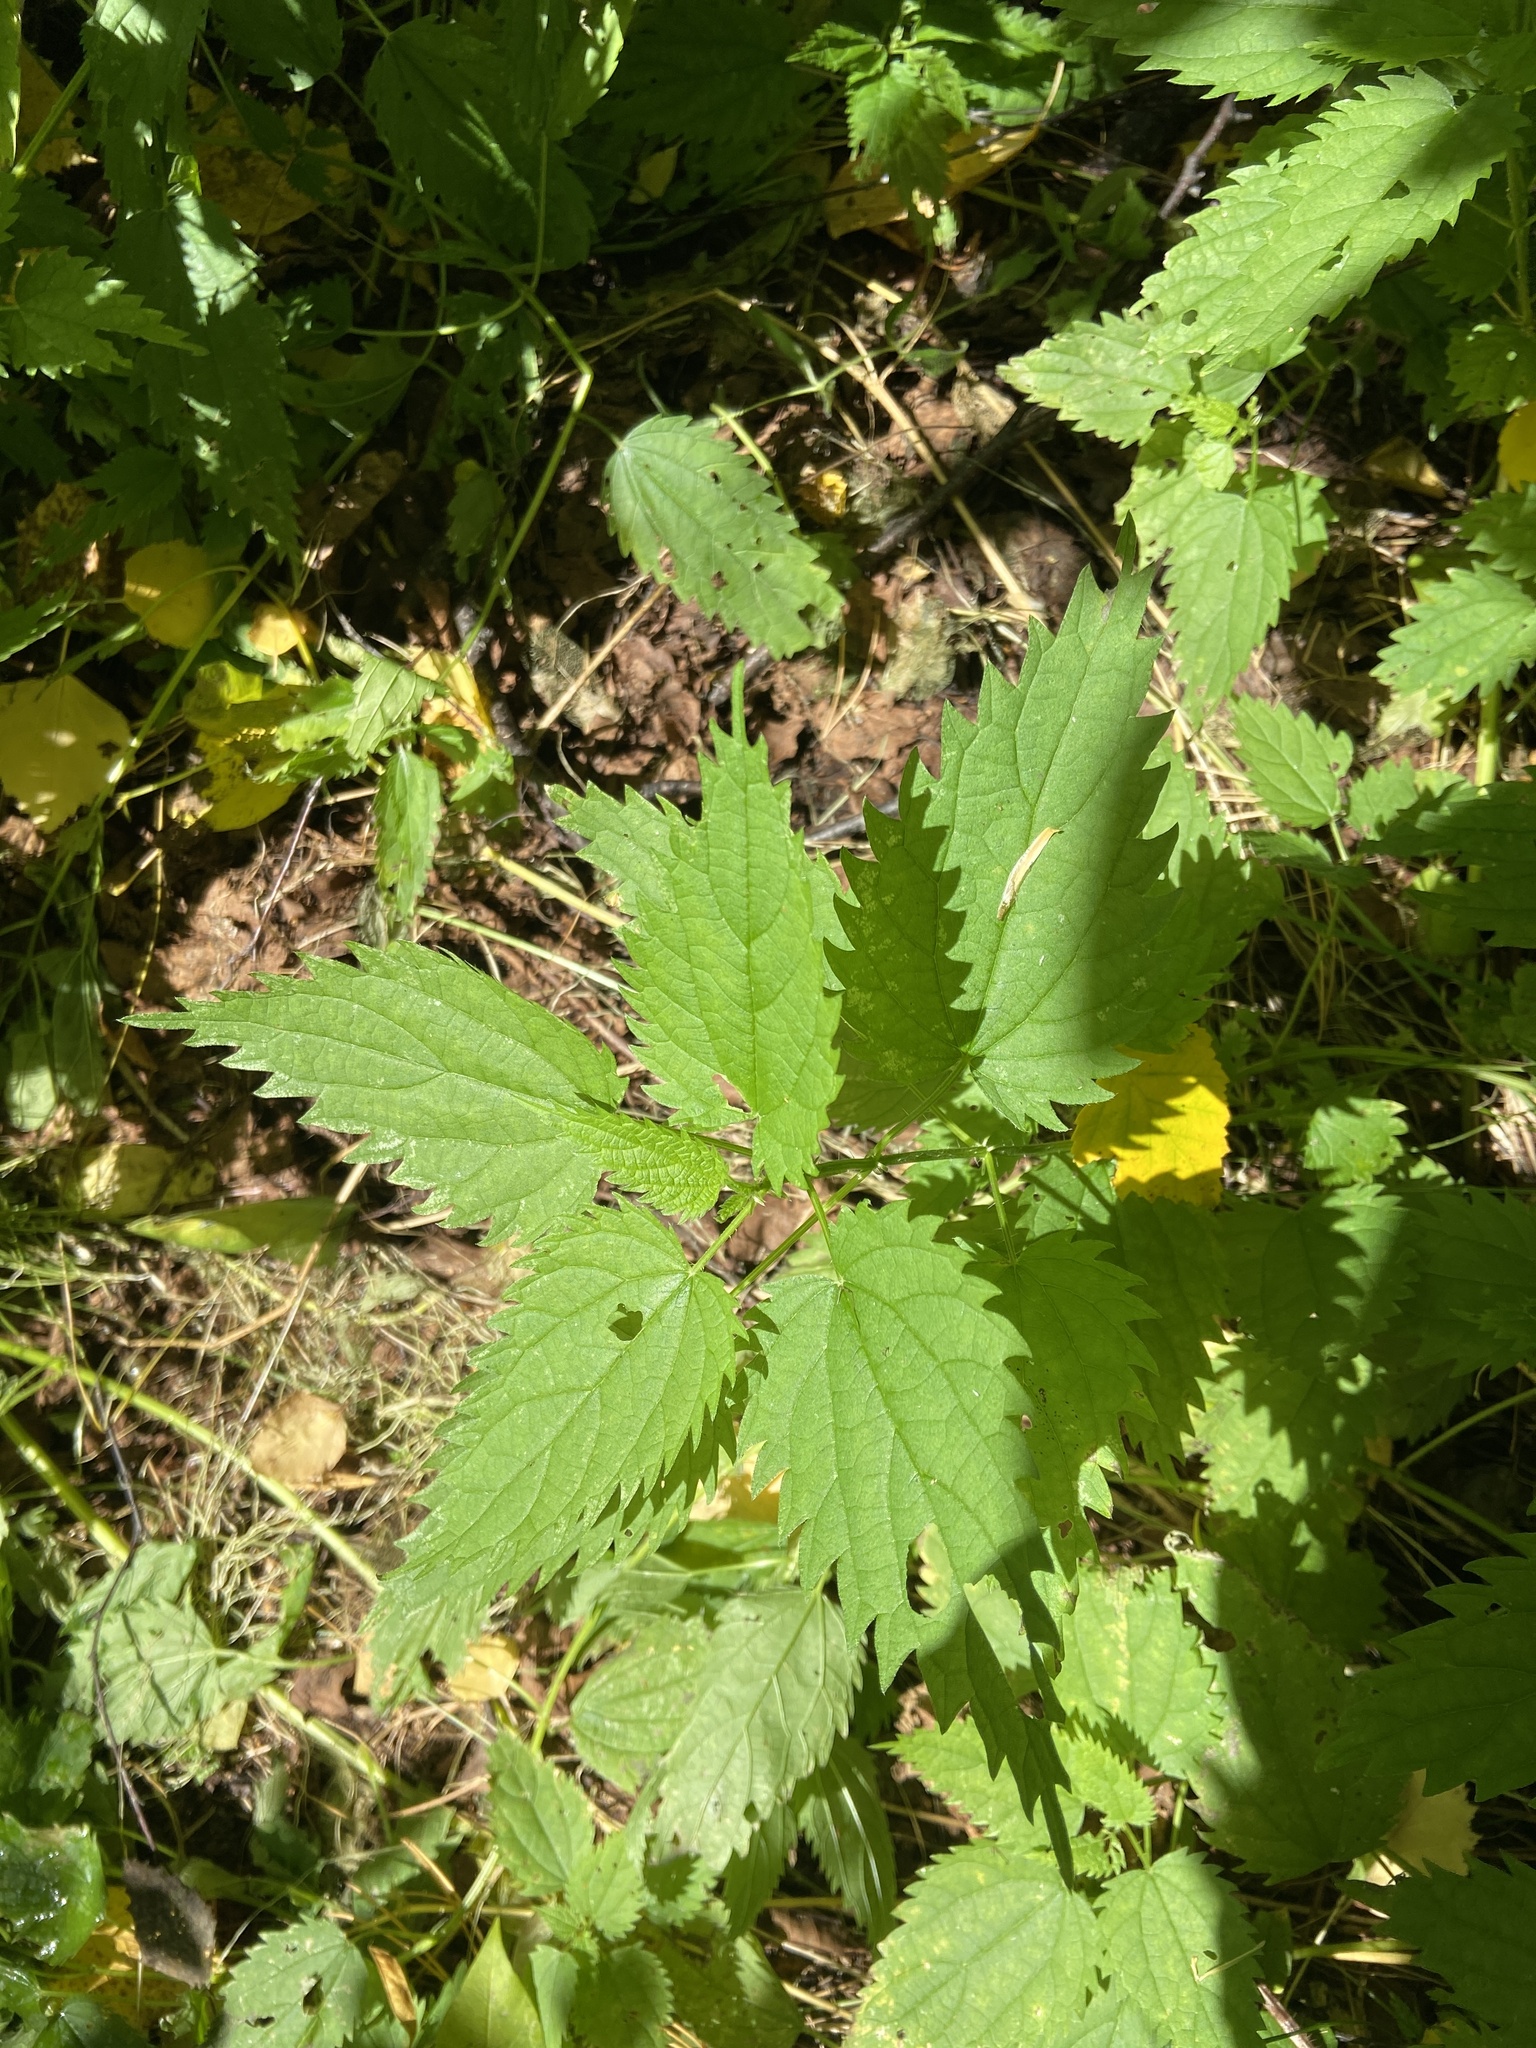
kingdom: Plantae
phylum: Tracheophyta
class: Magnoliopsida
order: Rosales
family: Urticaceae
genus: Urtica
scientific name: Urtica dioica
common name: Common nettle
